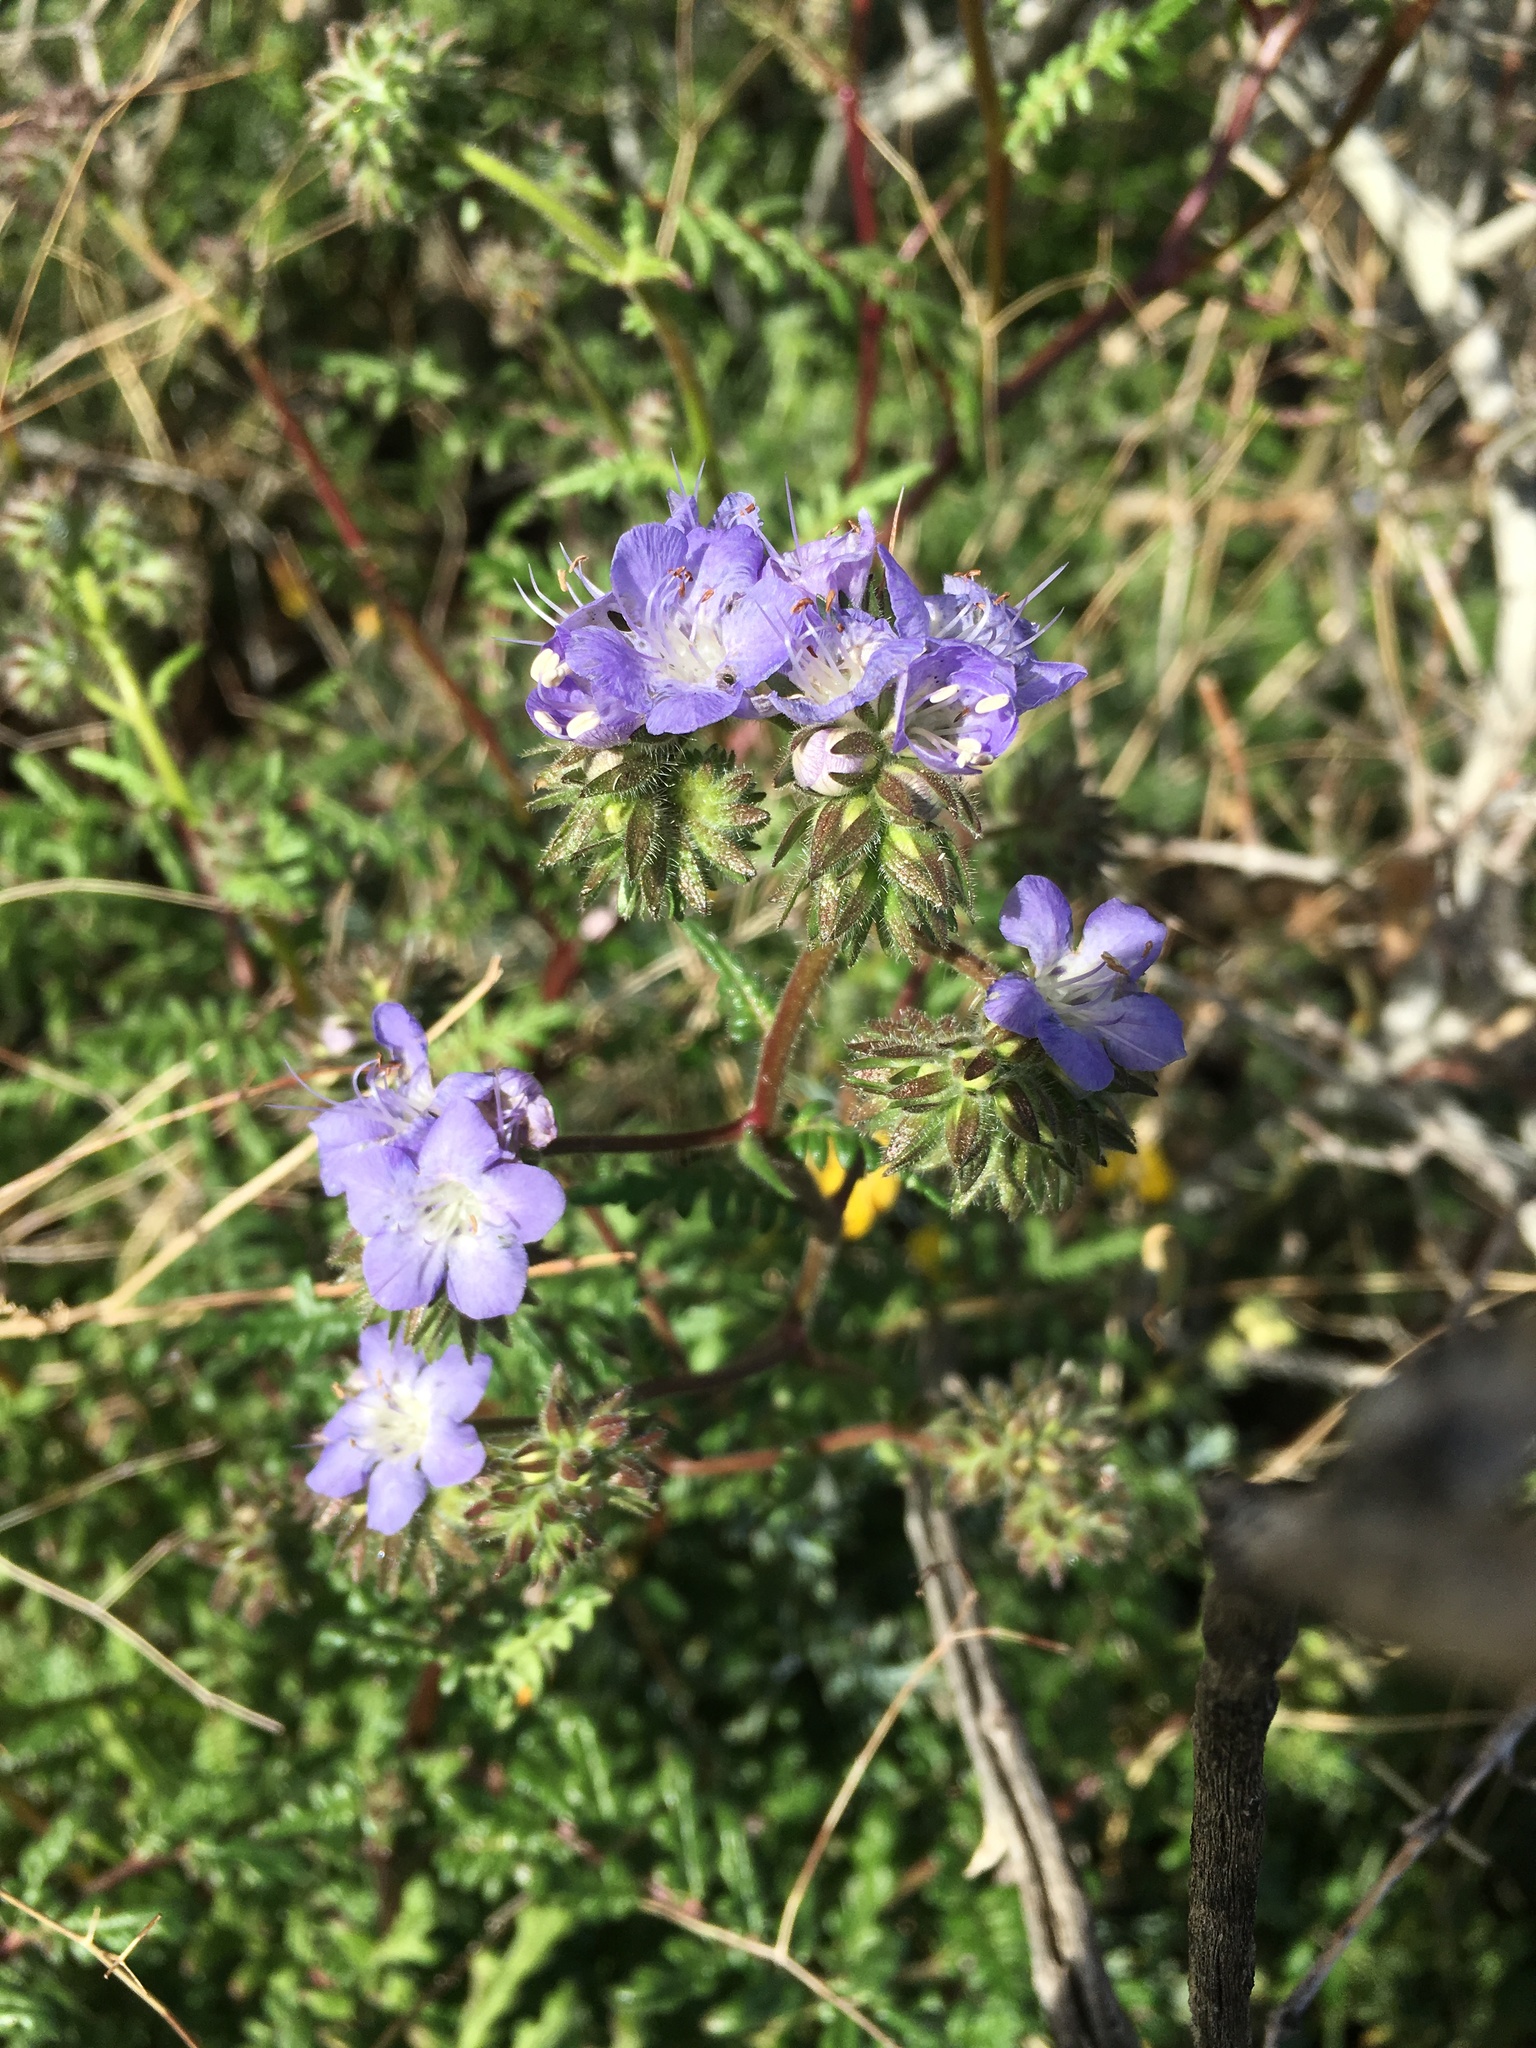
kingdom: Plantae
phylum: Tracheophyta
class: Magnoliopsida
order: Boraginales
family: Hydrophyllaceae
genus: Phacelia
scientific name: Phacelia distans
